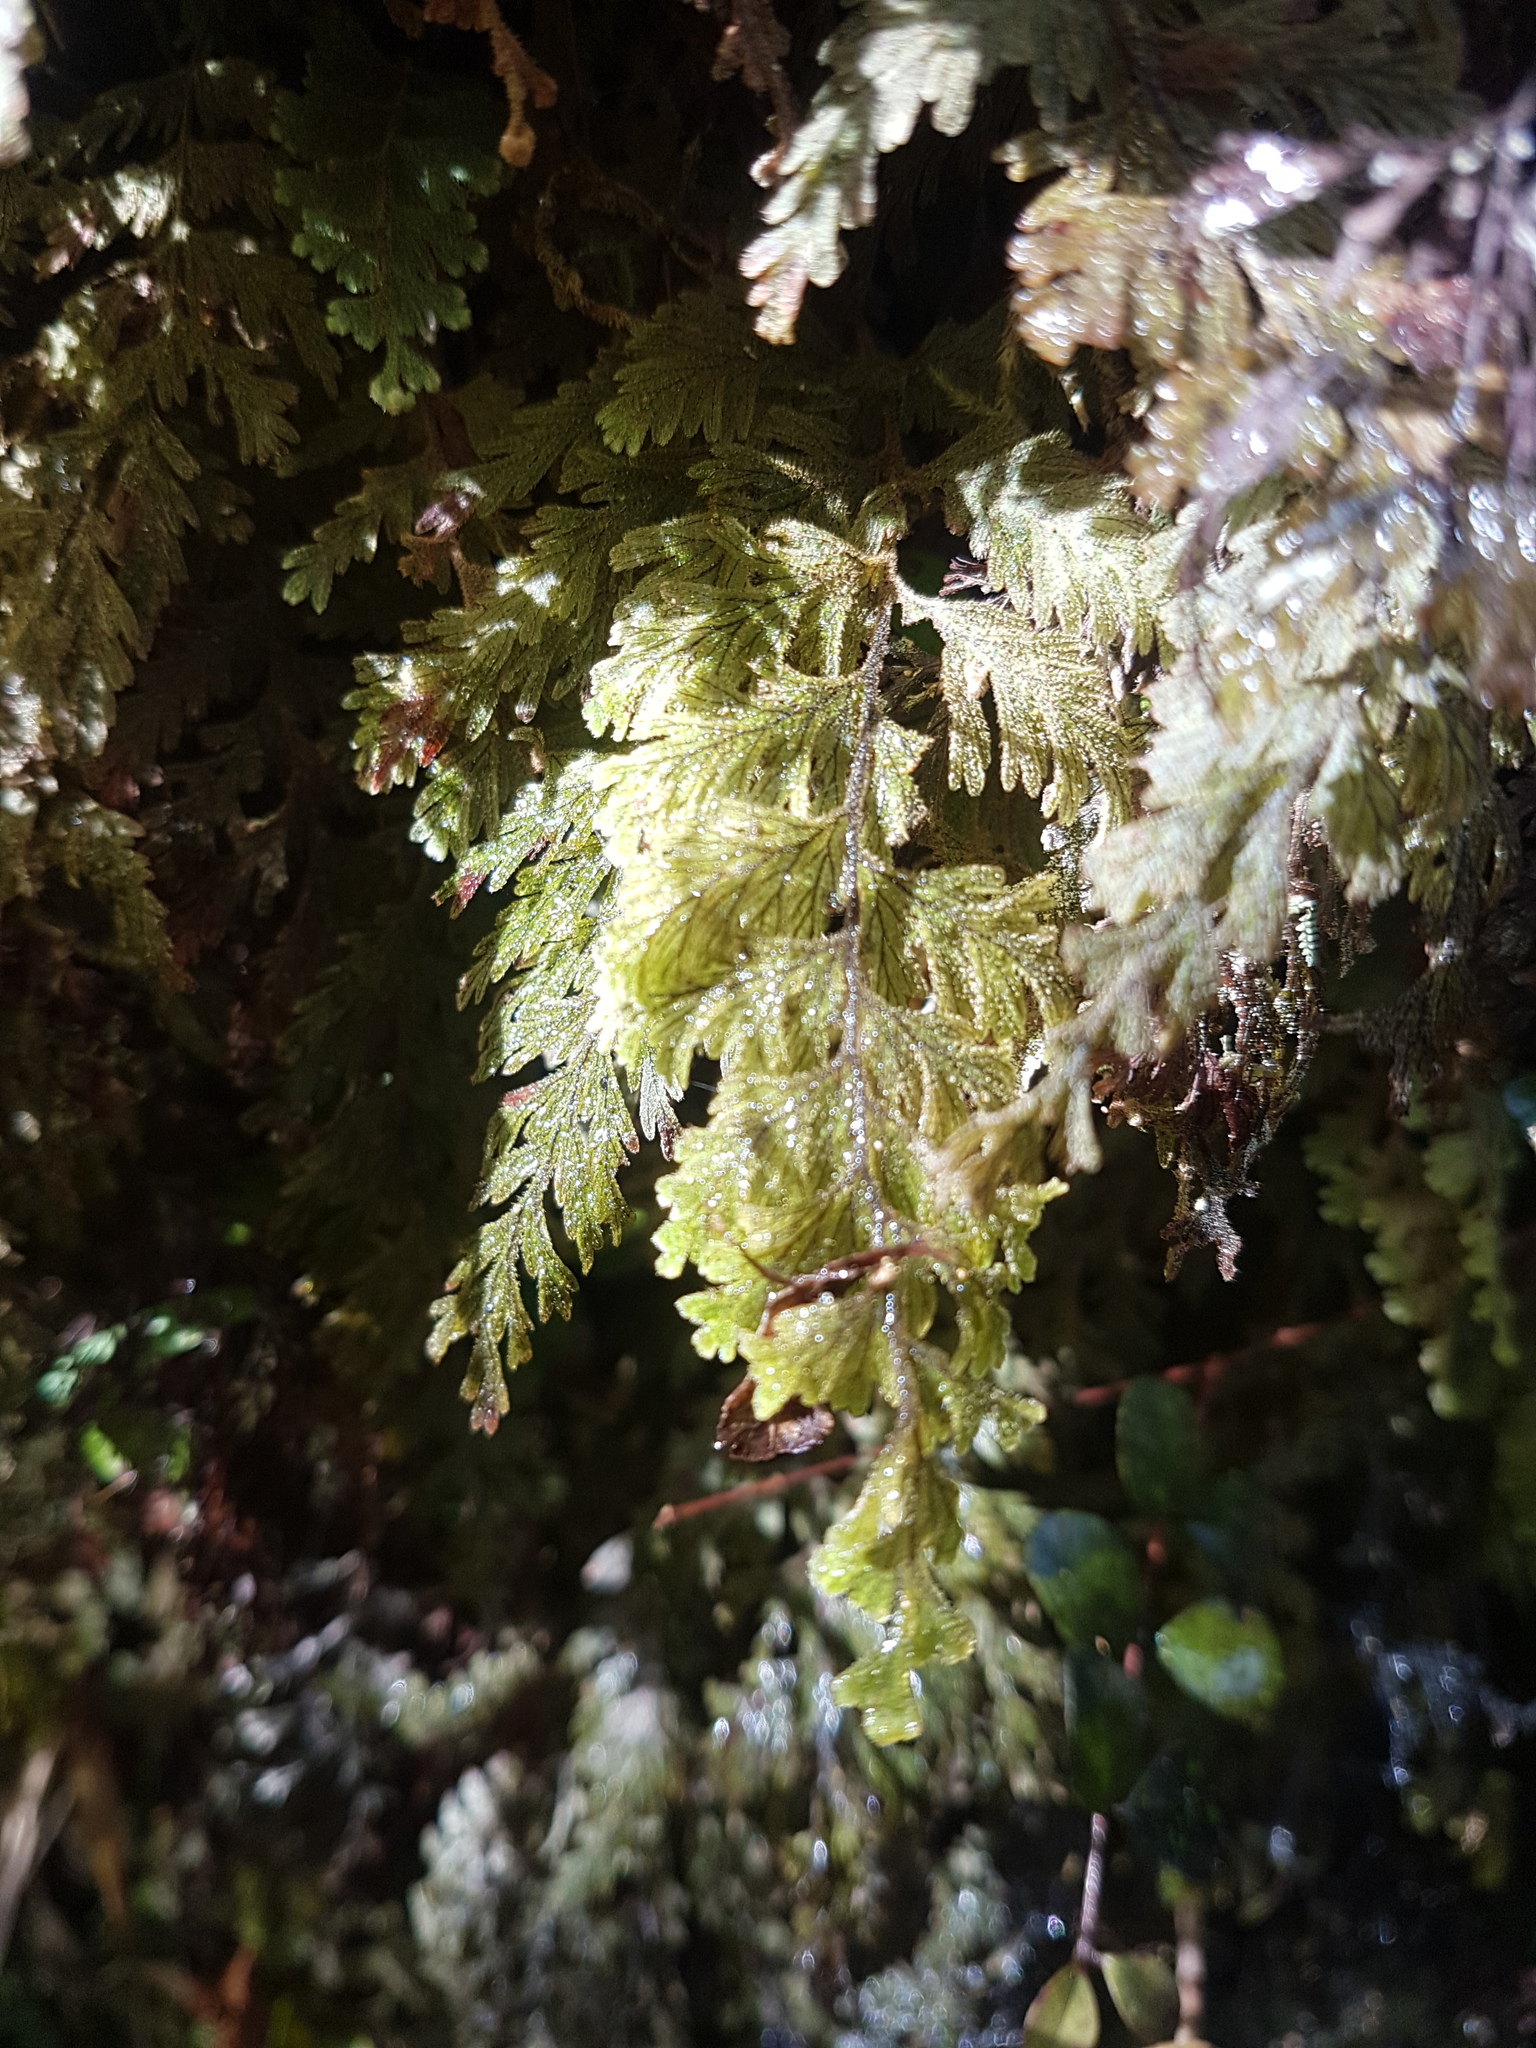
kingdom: Plantae
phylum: Tracheophyta
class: Polypodiopsida
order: Hymenophyllales
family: Hymenophyllaceae
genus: Hymenophyllum
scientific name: Hymenophyllum frankliniae
